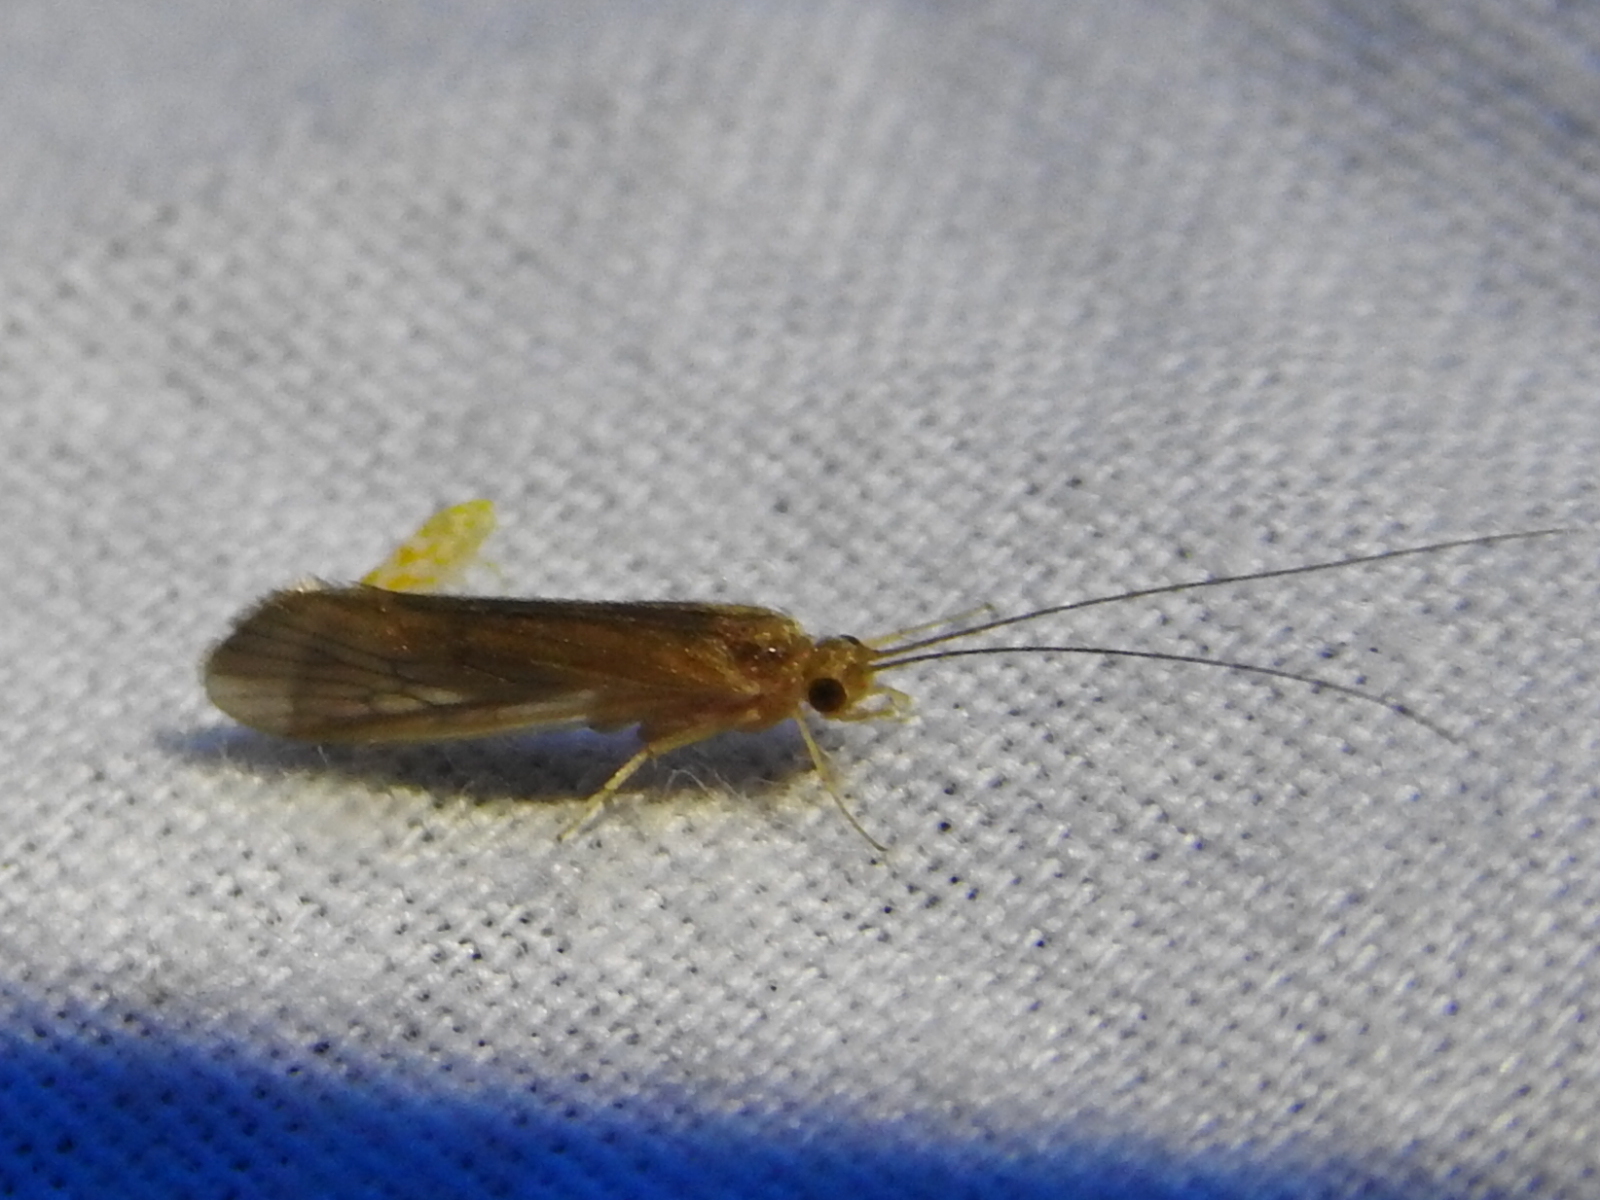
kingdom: Animalia
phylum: Arthropoda
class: Insecta
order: Trichoptera
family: Hydropsychidae
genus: Potamyia
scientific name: Potamyia flava
